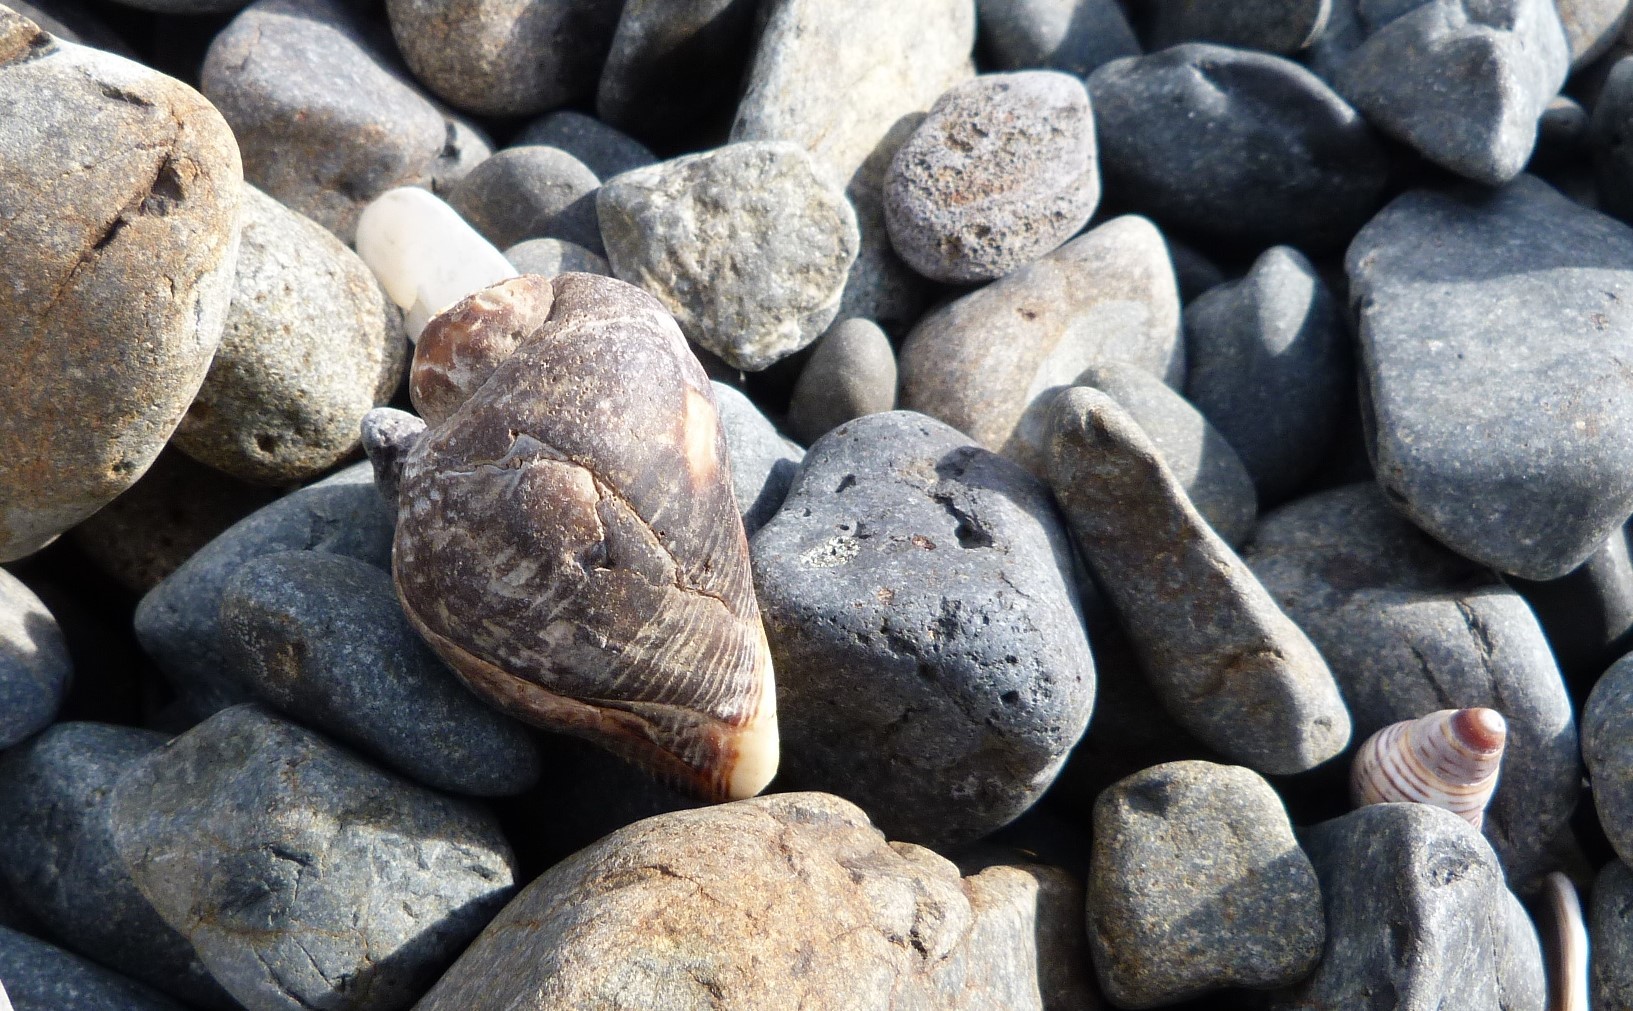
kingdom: Animalia
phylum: Mollusca
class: Gastropoda
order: Neogastropoda
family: Muricidae
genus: Haustrum
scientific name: Haustrum haustorium
